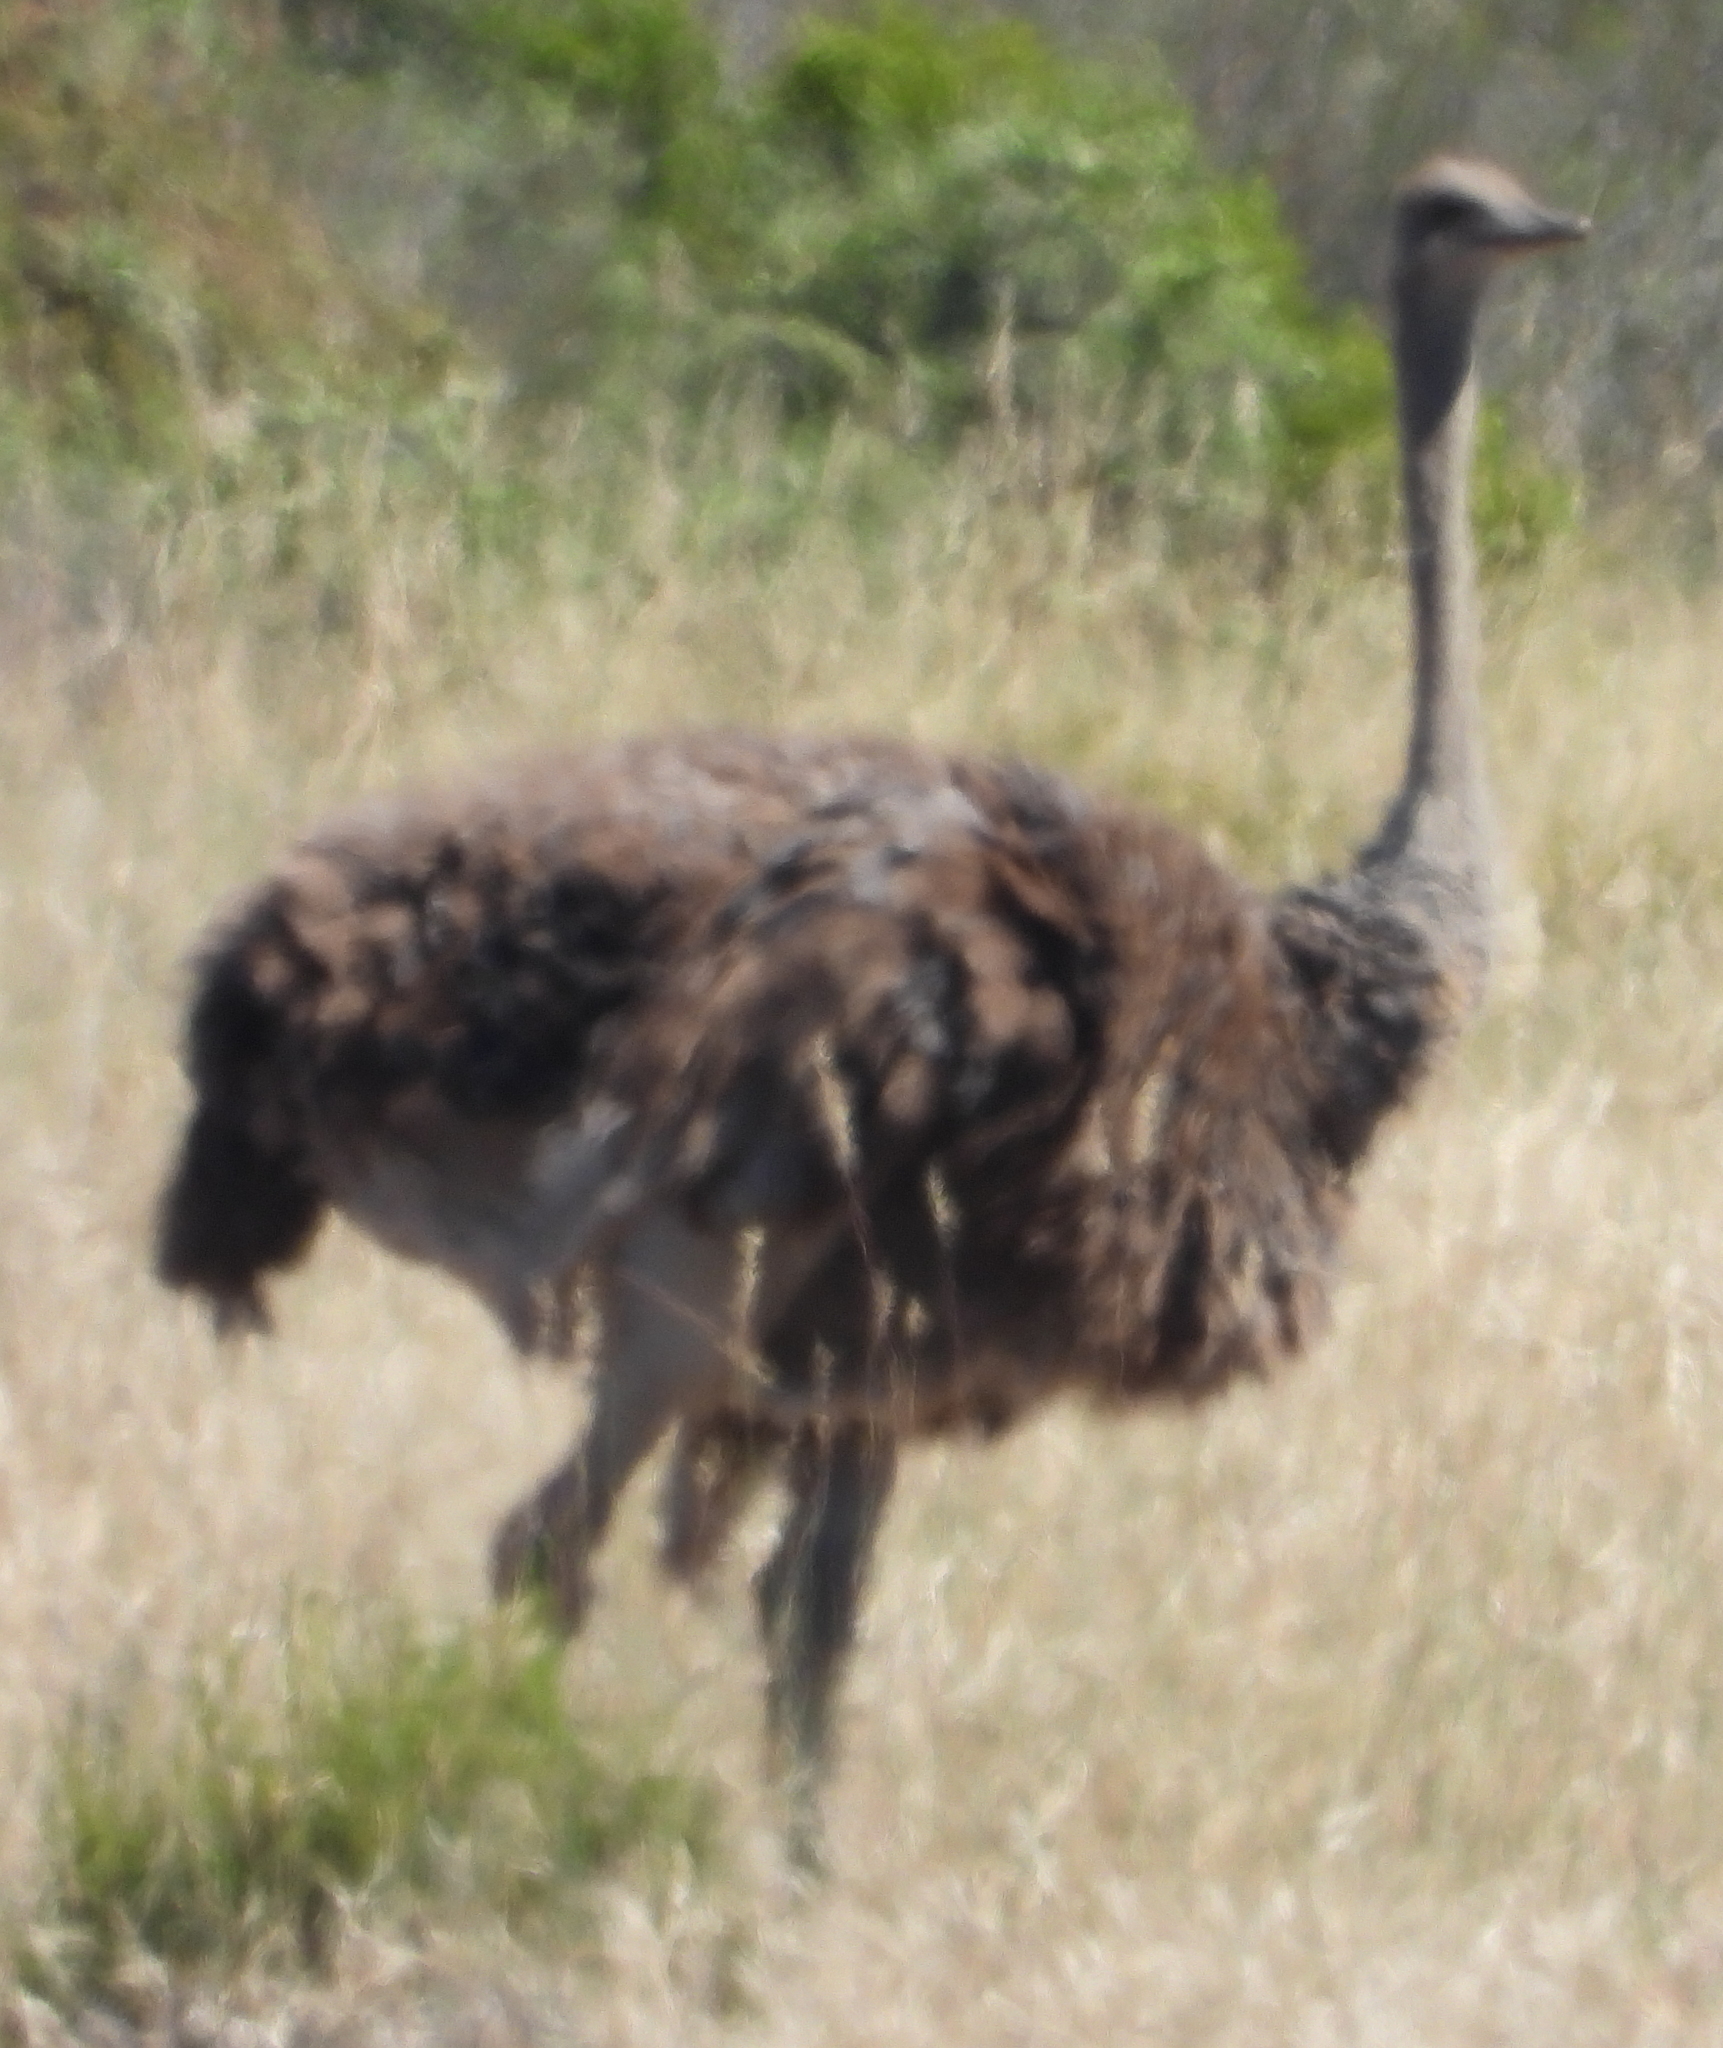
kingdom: Animalia
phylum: Chordata
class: Aves
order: Struthioniformes
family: Struthionidae
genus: Struthio
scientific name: Struthio camelus
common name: Common ostrich
